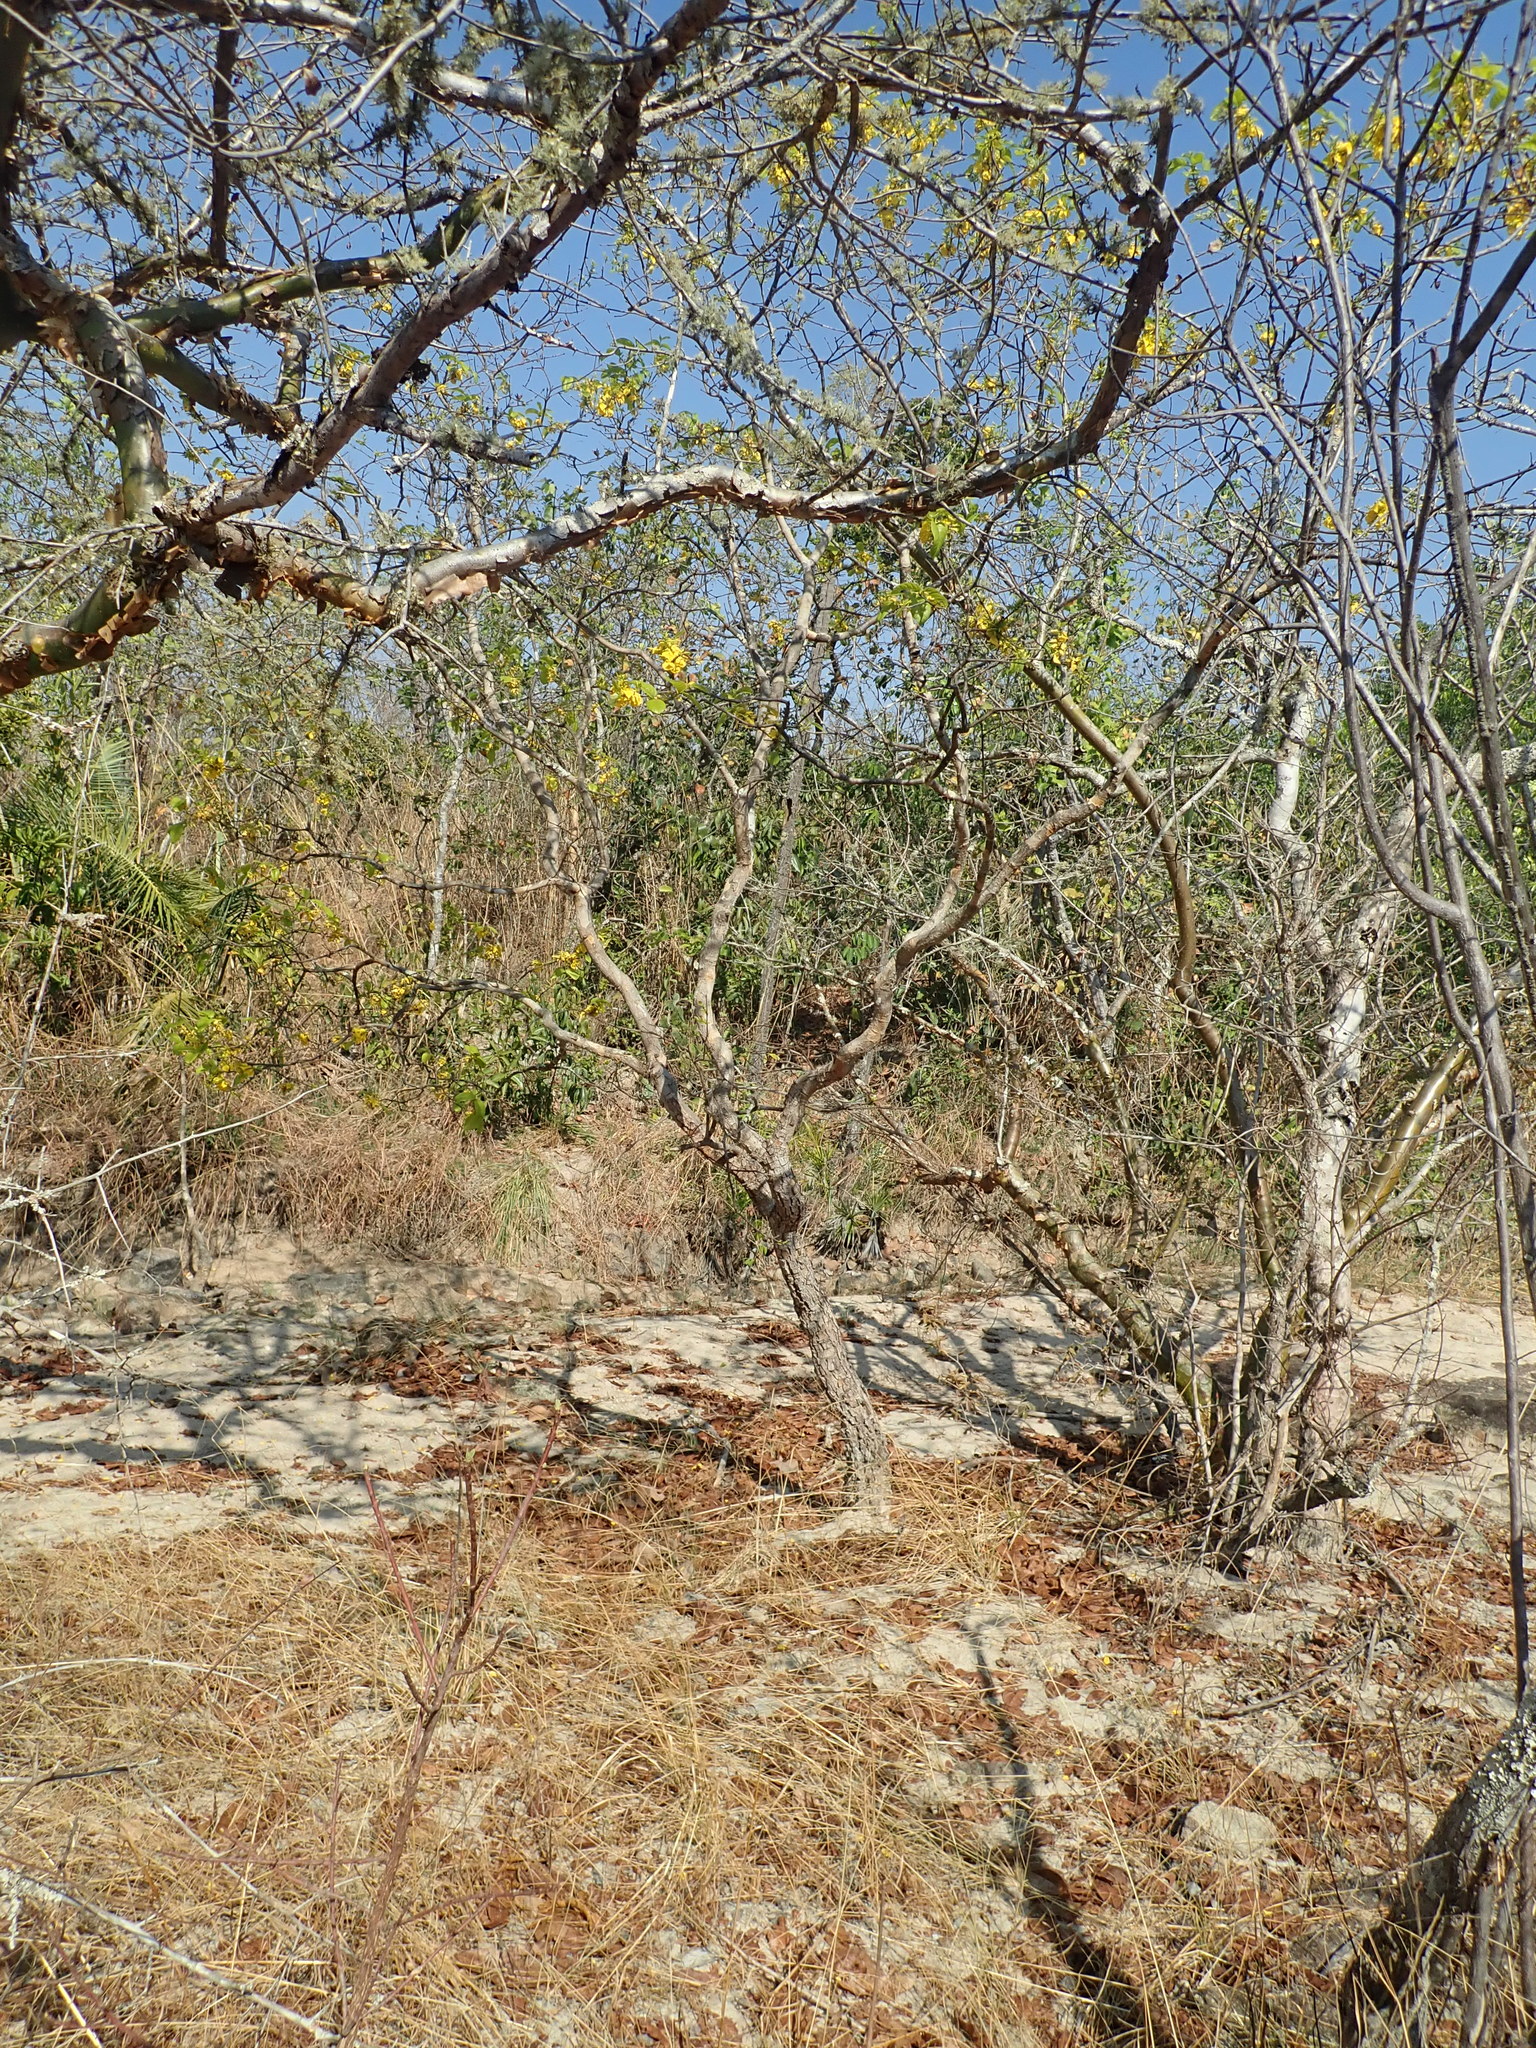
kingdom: Plantae
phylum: Tracheophyta
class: Magnoliopsida
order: Myrtales
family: Vochysiaceae
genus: Callisthene
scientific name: Callisthene fasciculata
